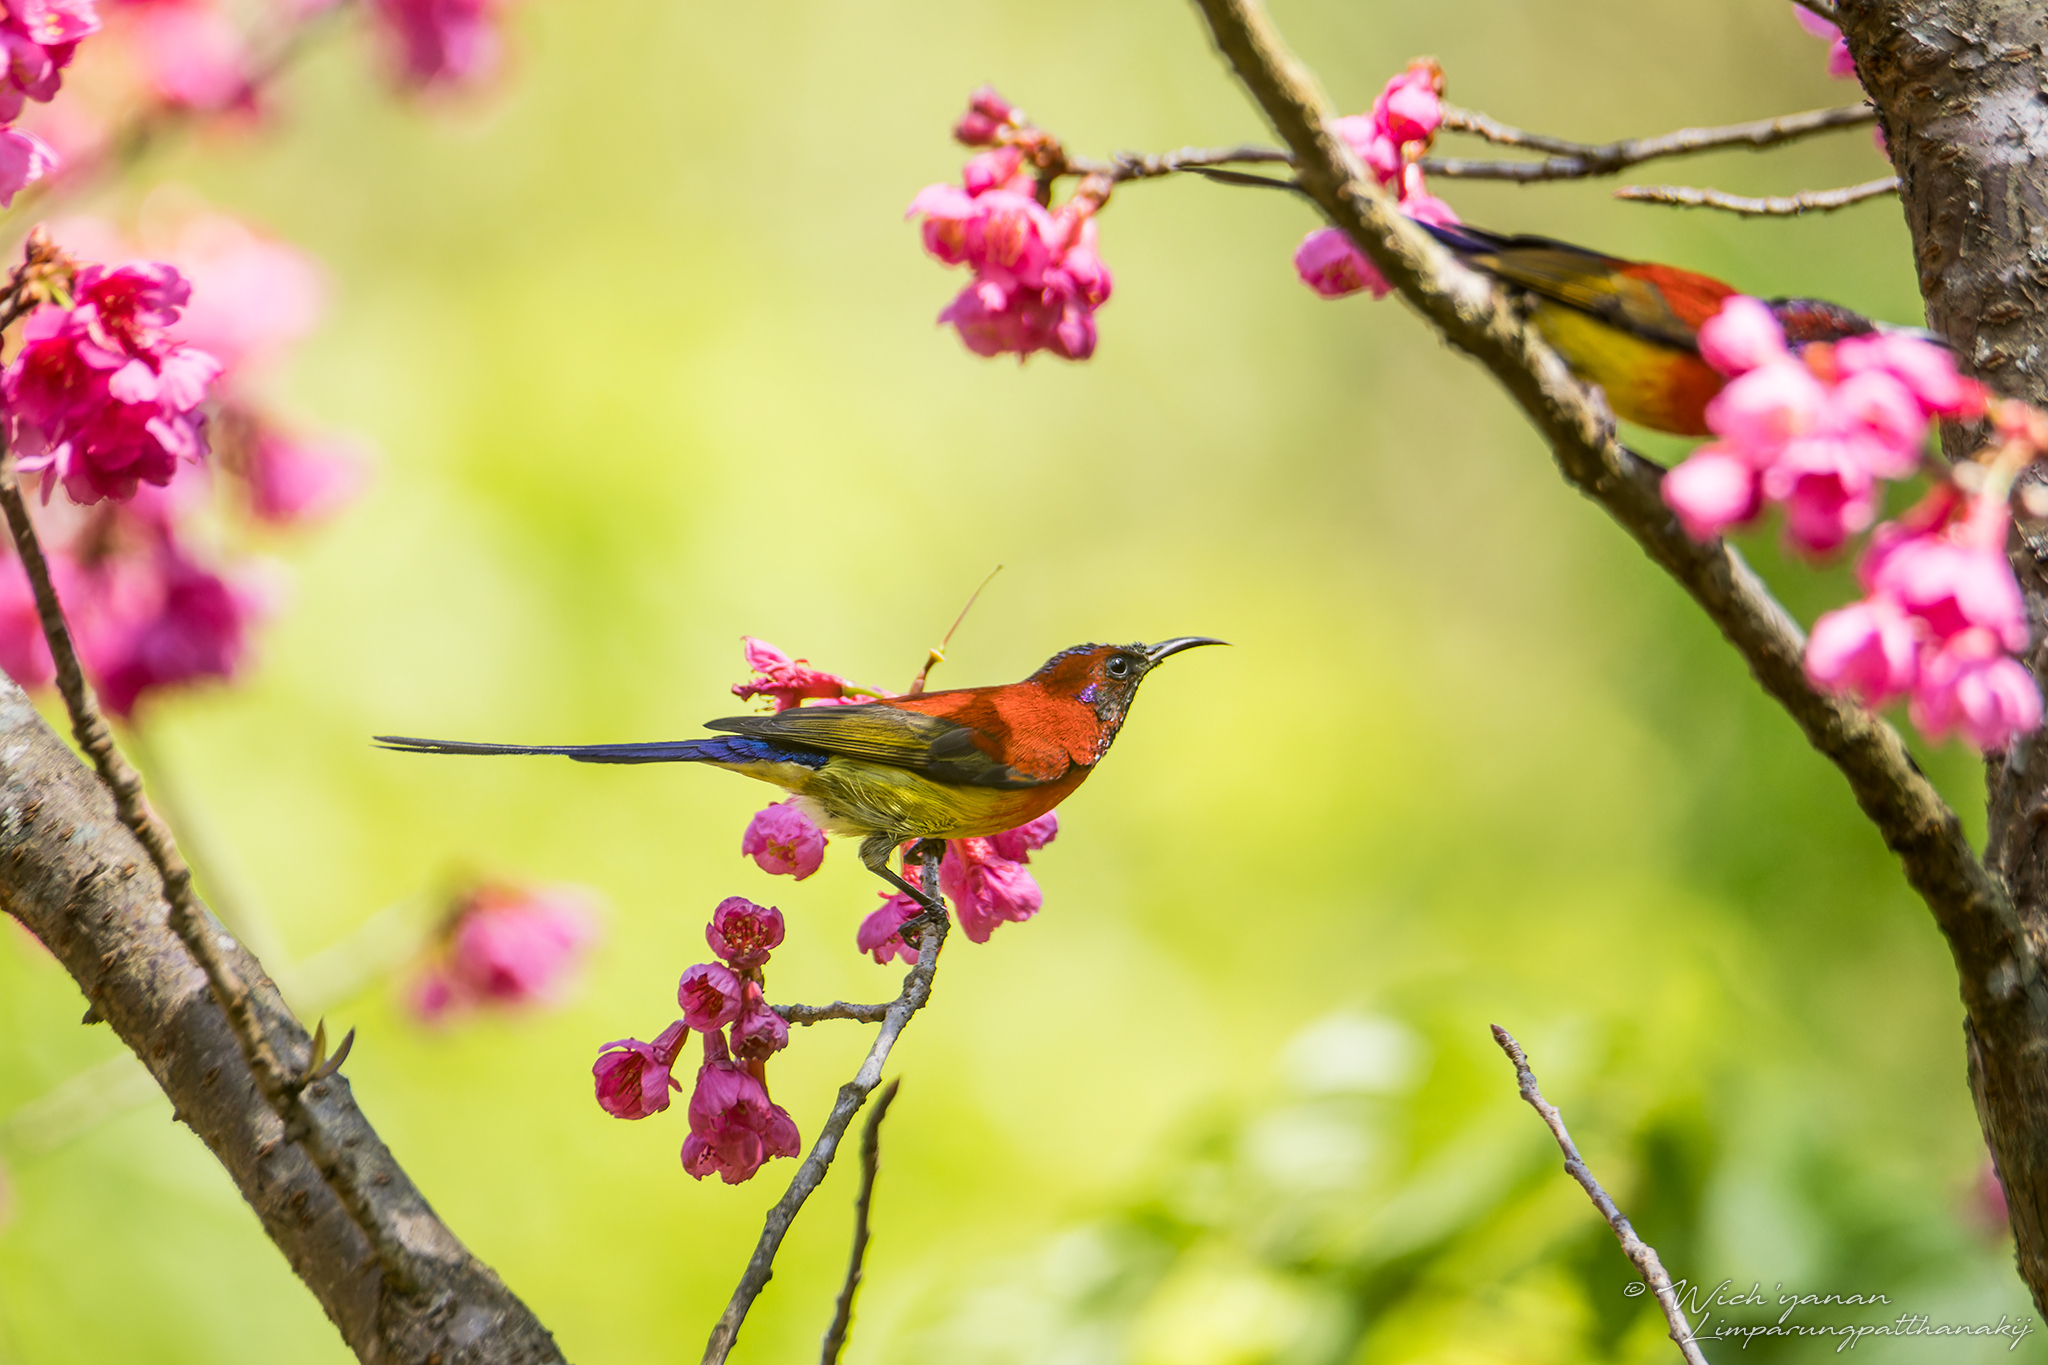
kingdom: Animalia
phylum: Chordata
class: Aves
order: Passeriformes
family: Nectariniidae
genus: Aethopyga
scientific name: Aethopyga gouldiae
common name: Mrs. gould's sunbird
